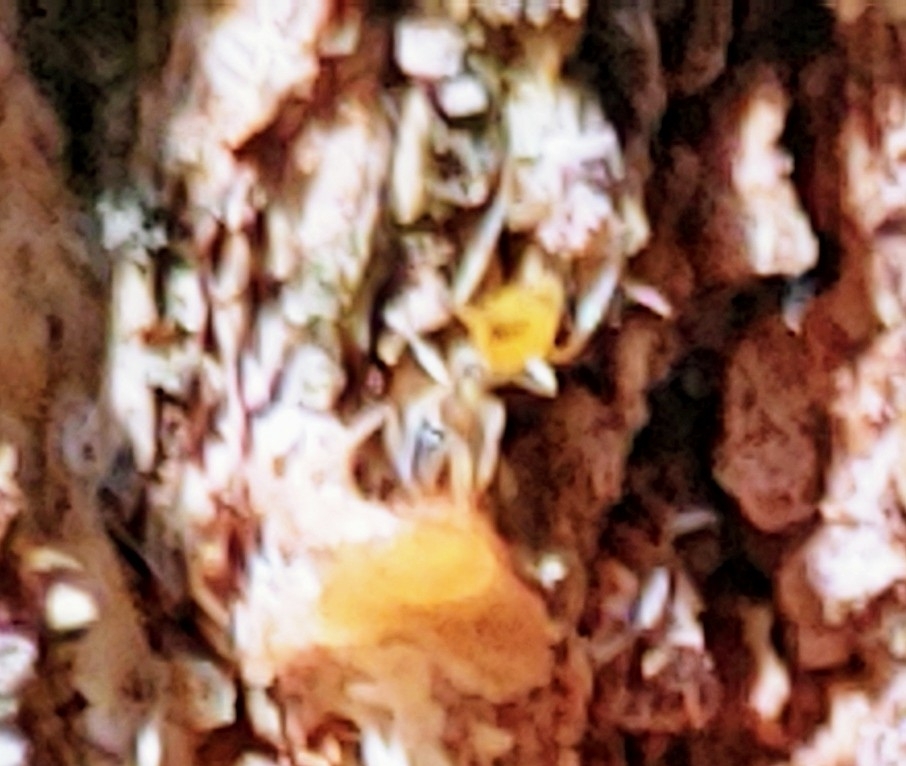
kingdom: Animalia
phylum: Arthropoda
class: Insecta
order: Hymenoptera
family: Formicidae
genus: Tapinoma
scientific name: Tapinoma melanocephalum
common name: Ghost ant
